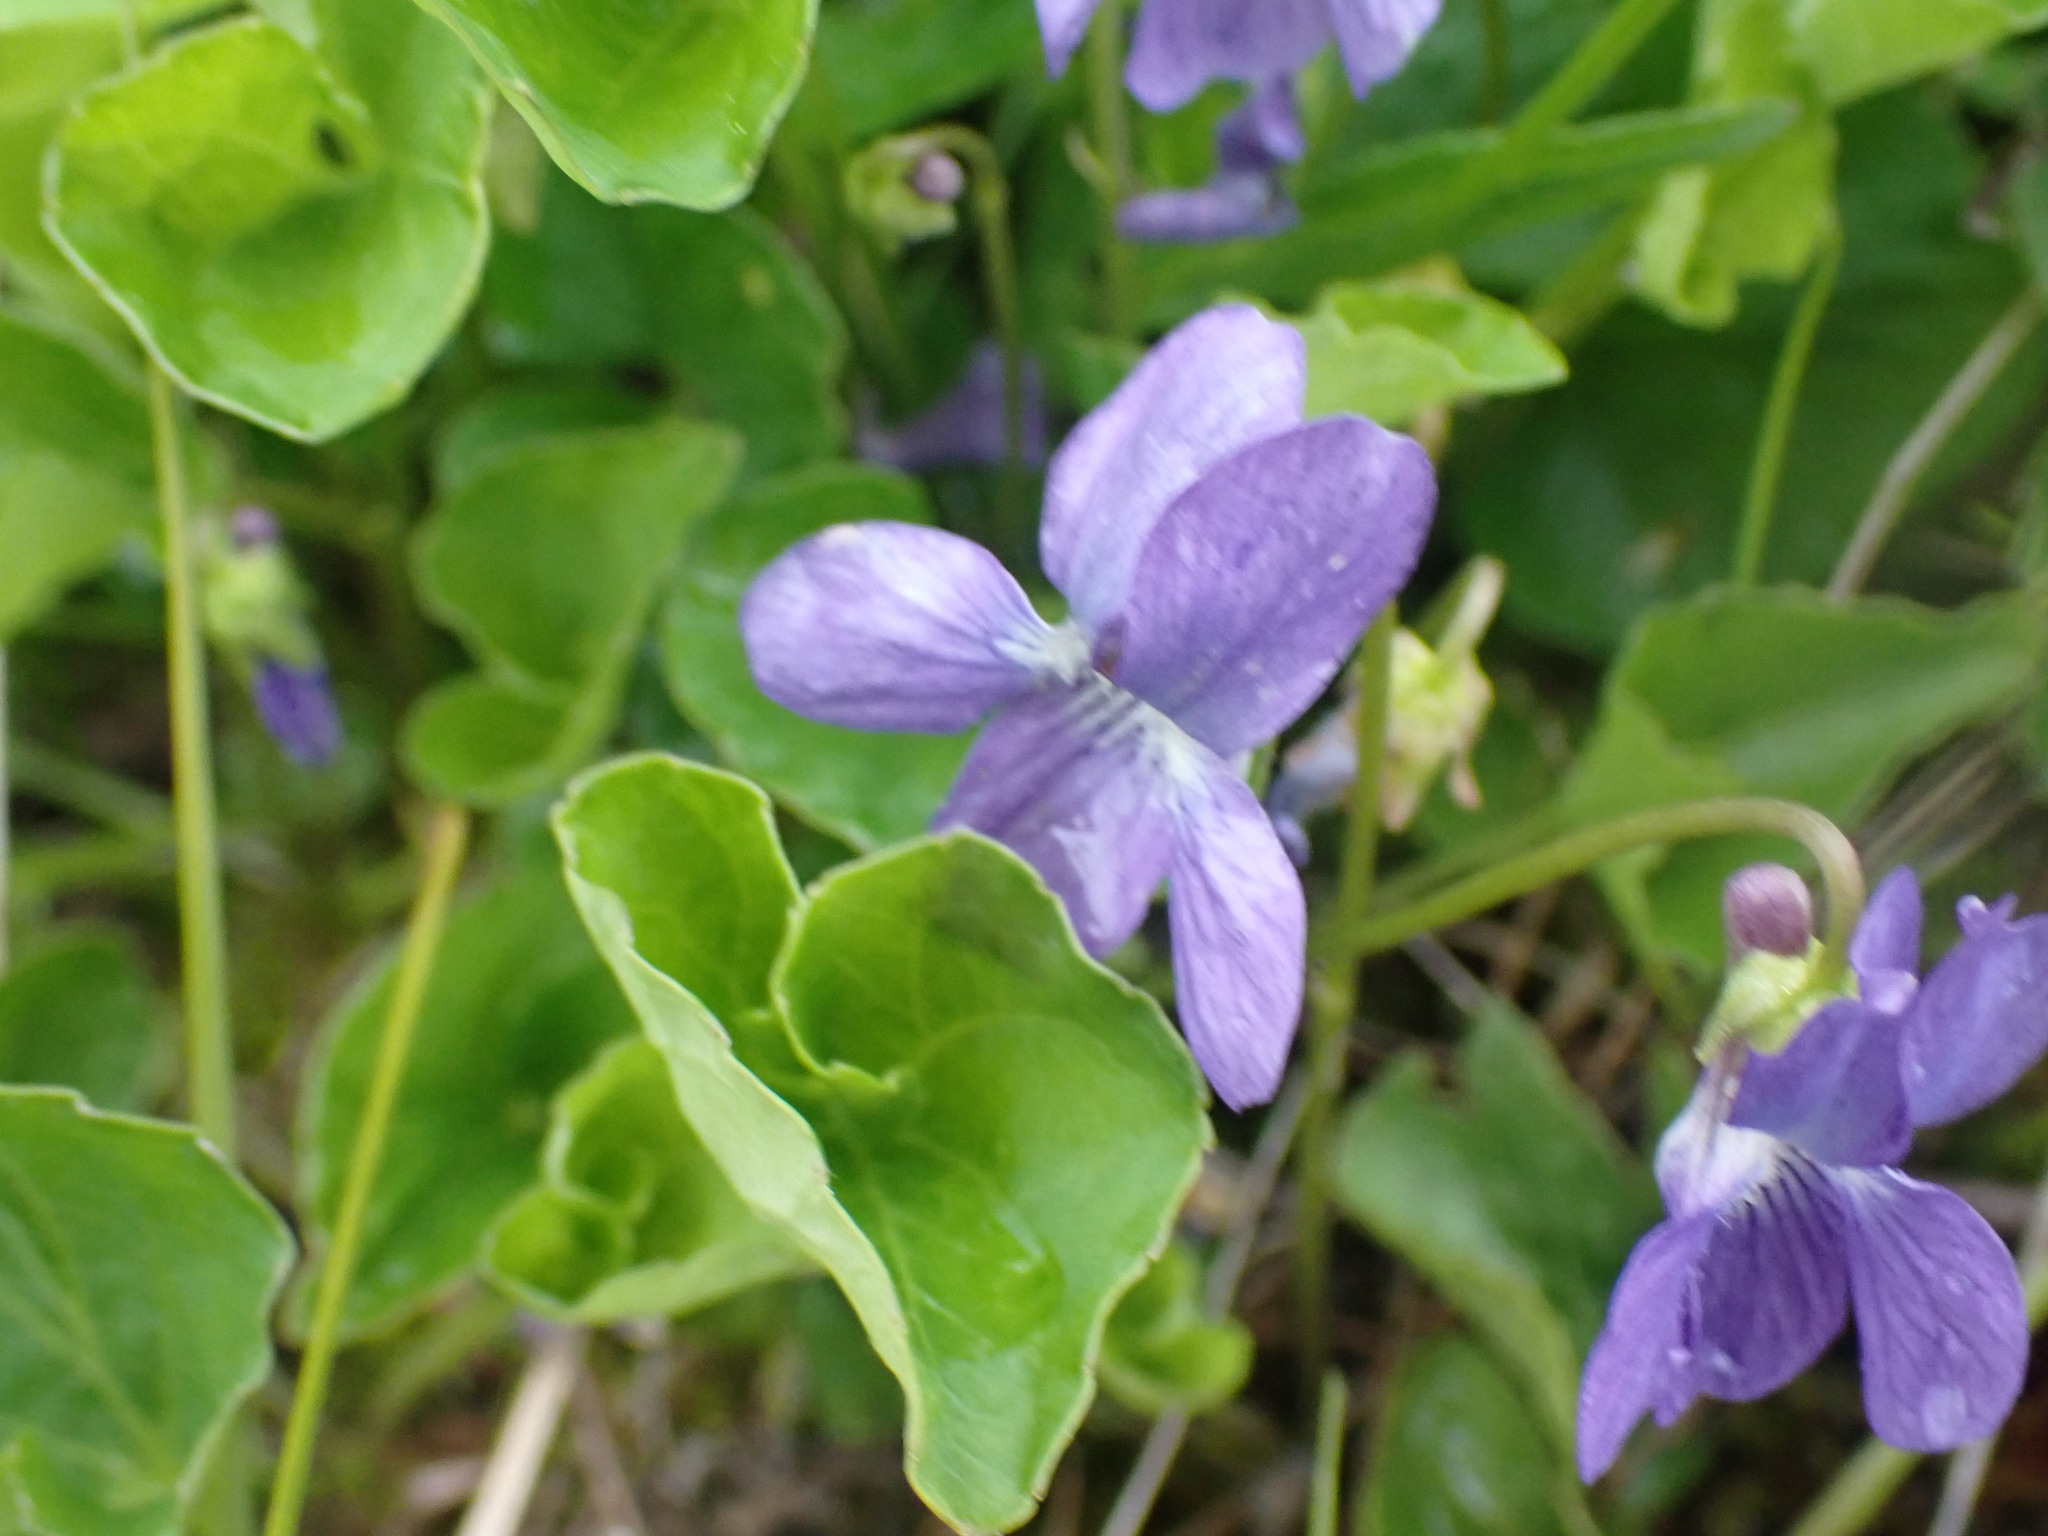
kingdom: Plantae
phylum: Tracheophyta
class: Magnoliopsida
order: Malpighiales
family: Violaceae
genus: Viola
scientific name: Viola nephrophylla
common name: Blue meadow violet
